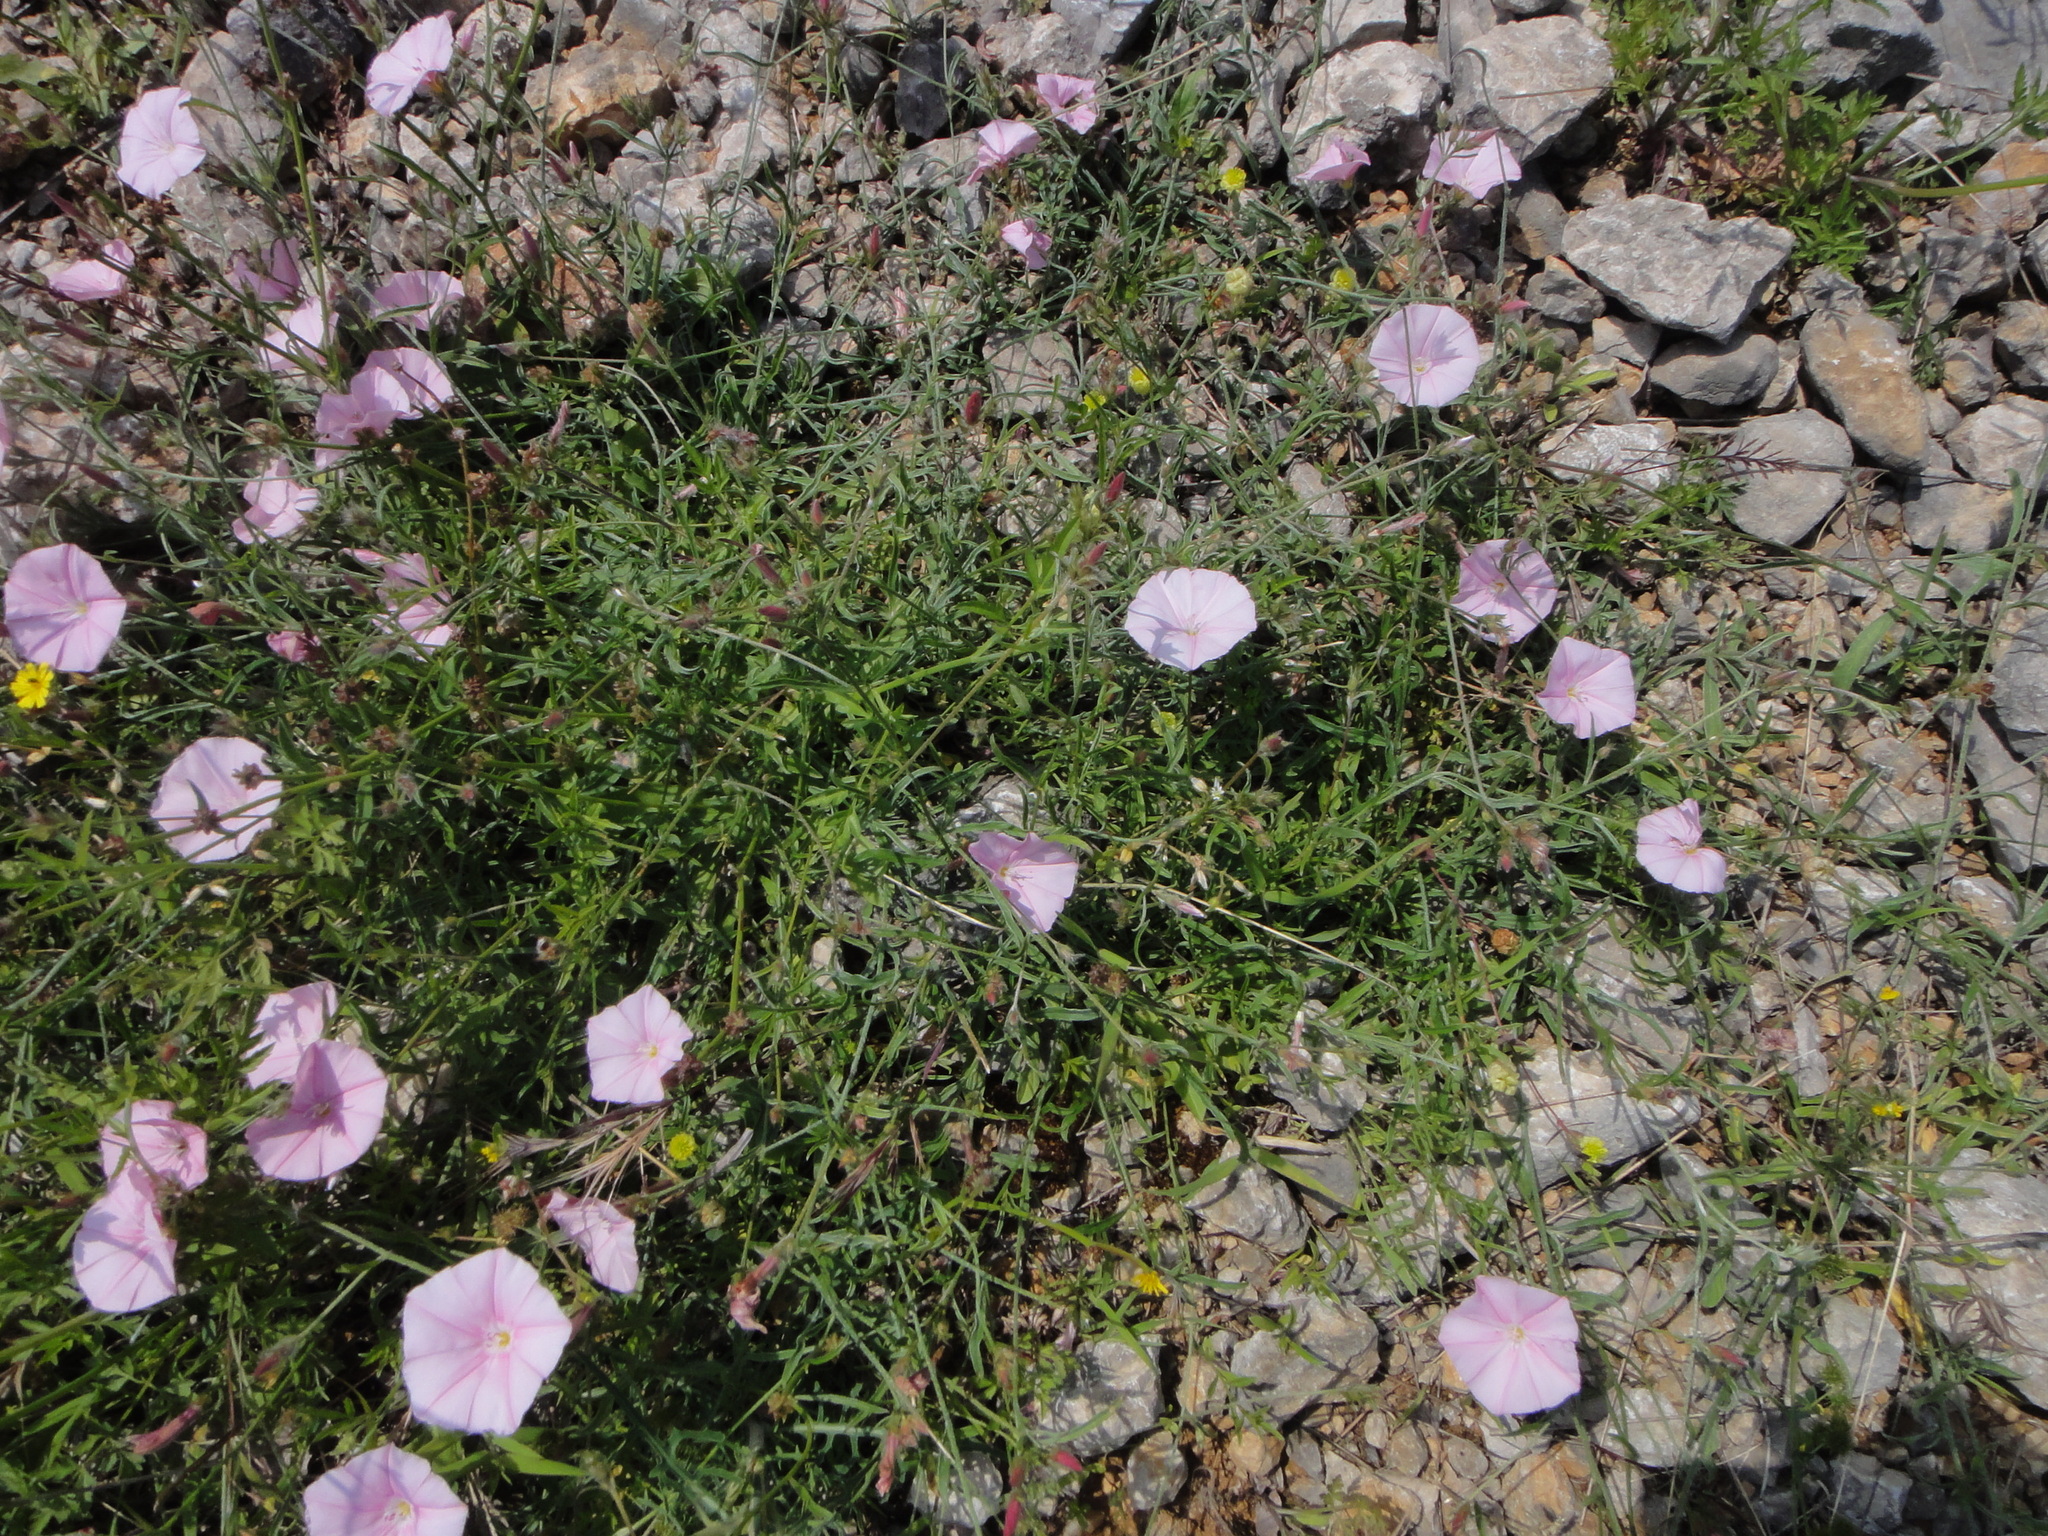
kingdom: Plantae
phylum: Tracheophyta
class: Magnoliopsida
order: Solanales
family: Convolvulaceae
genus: Convolvulus
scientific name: Convolvulus cantabrica
